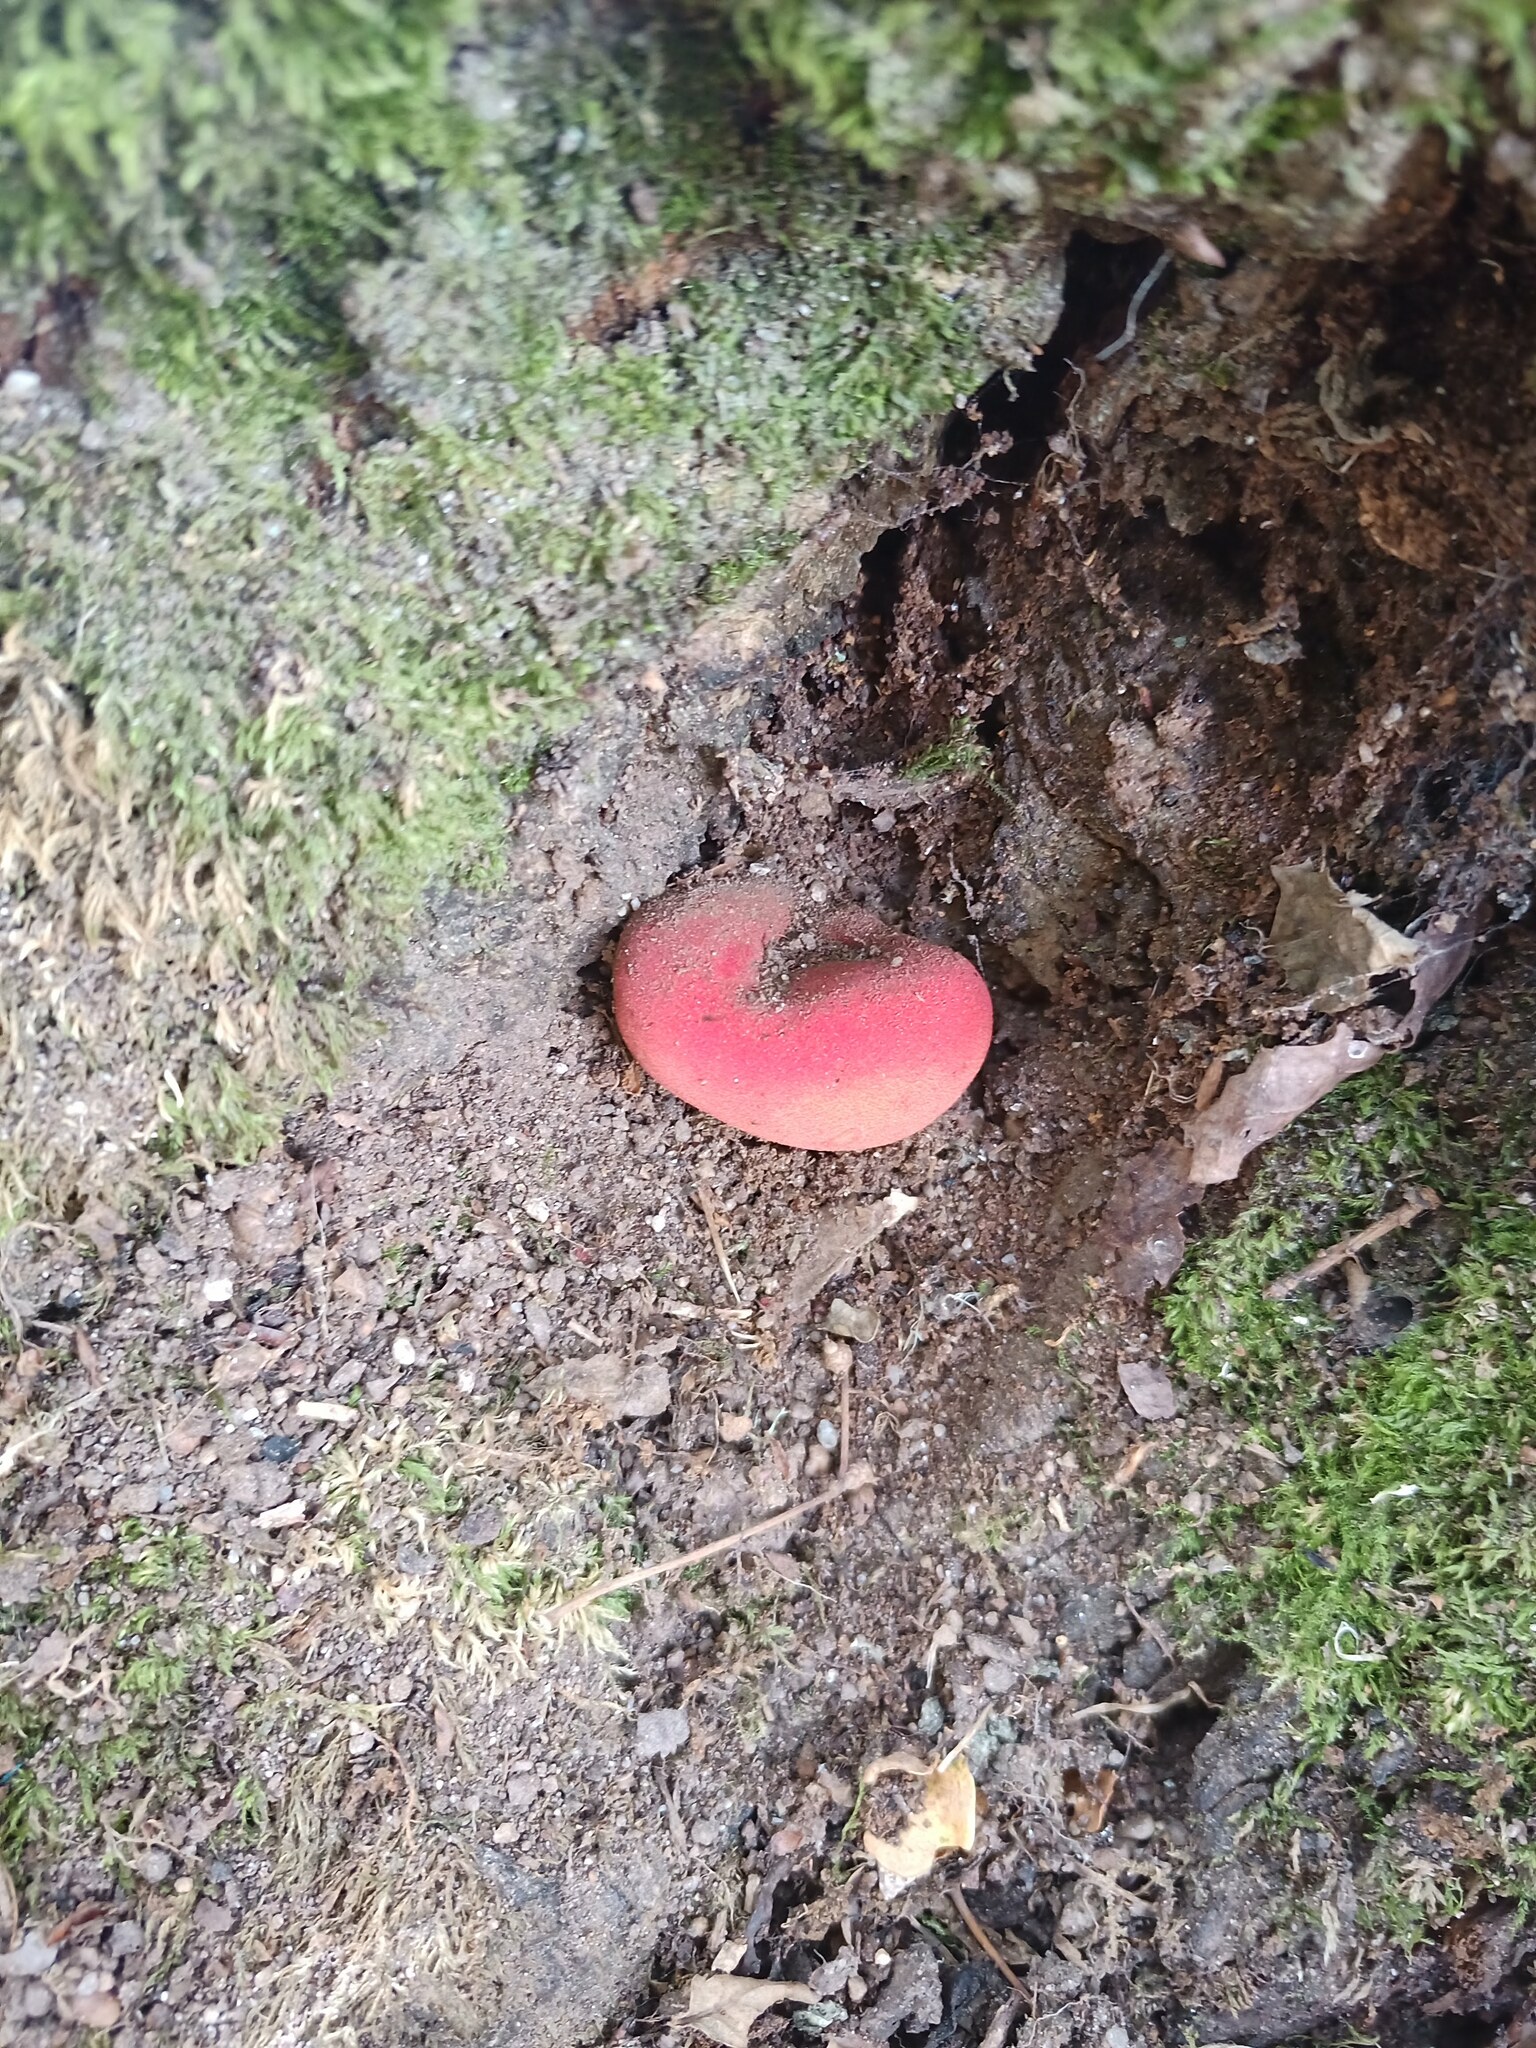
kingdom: Fungi
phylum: Basidiomycota
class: Agaricomycetes
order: Agaricales
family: Fistulinaceae
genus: Fistulina
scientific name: Fistulina hepatica
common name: Beef-steak fungus
